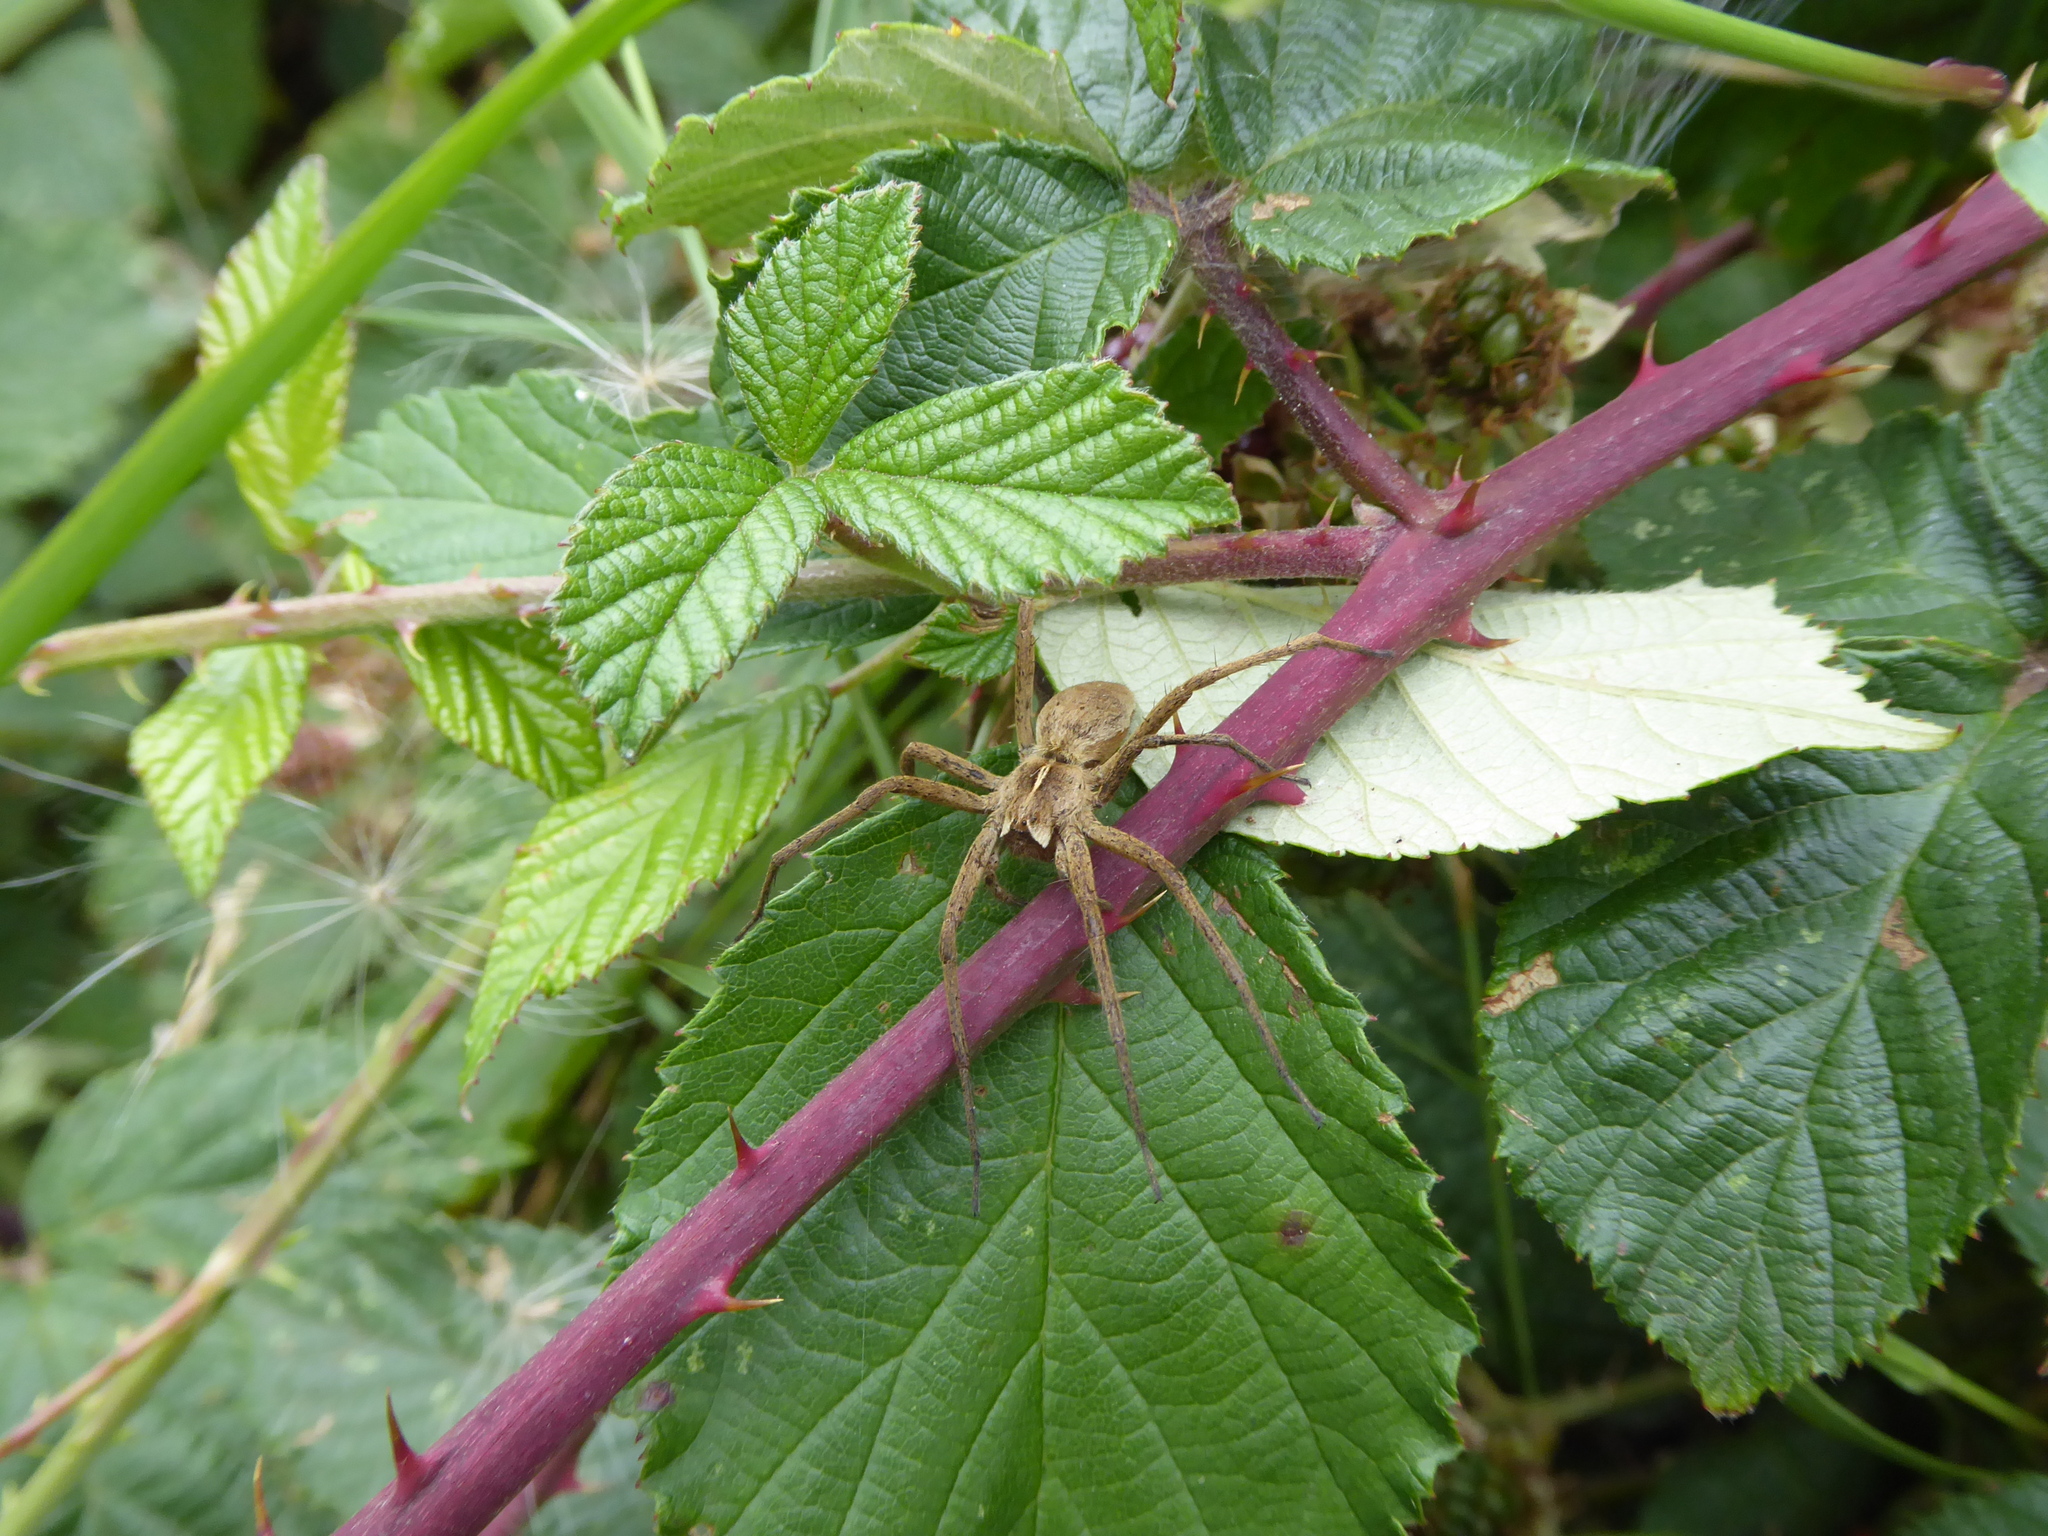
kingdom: Animalia
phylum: Arthropoda
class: Arachnida
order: Araneae
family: Pisauridae
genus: Pisaura
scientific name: Pisaura mirabilis
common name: Tent spider
